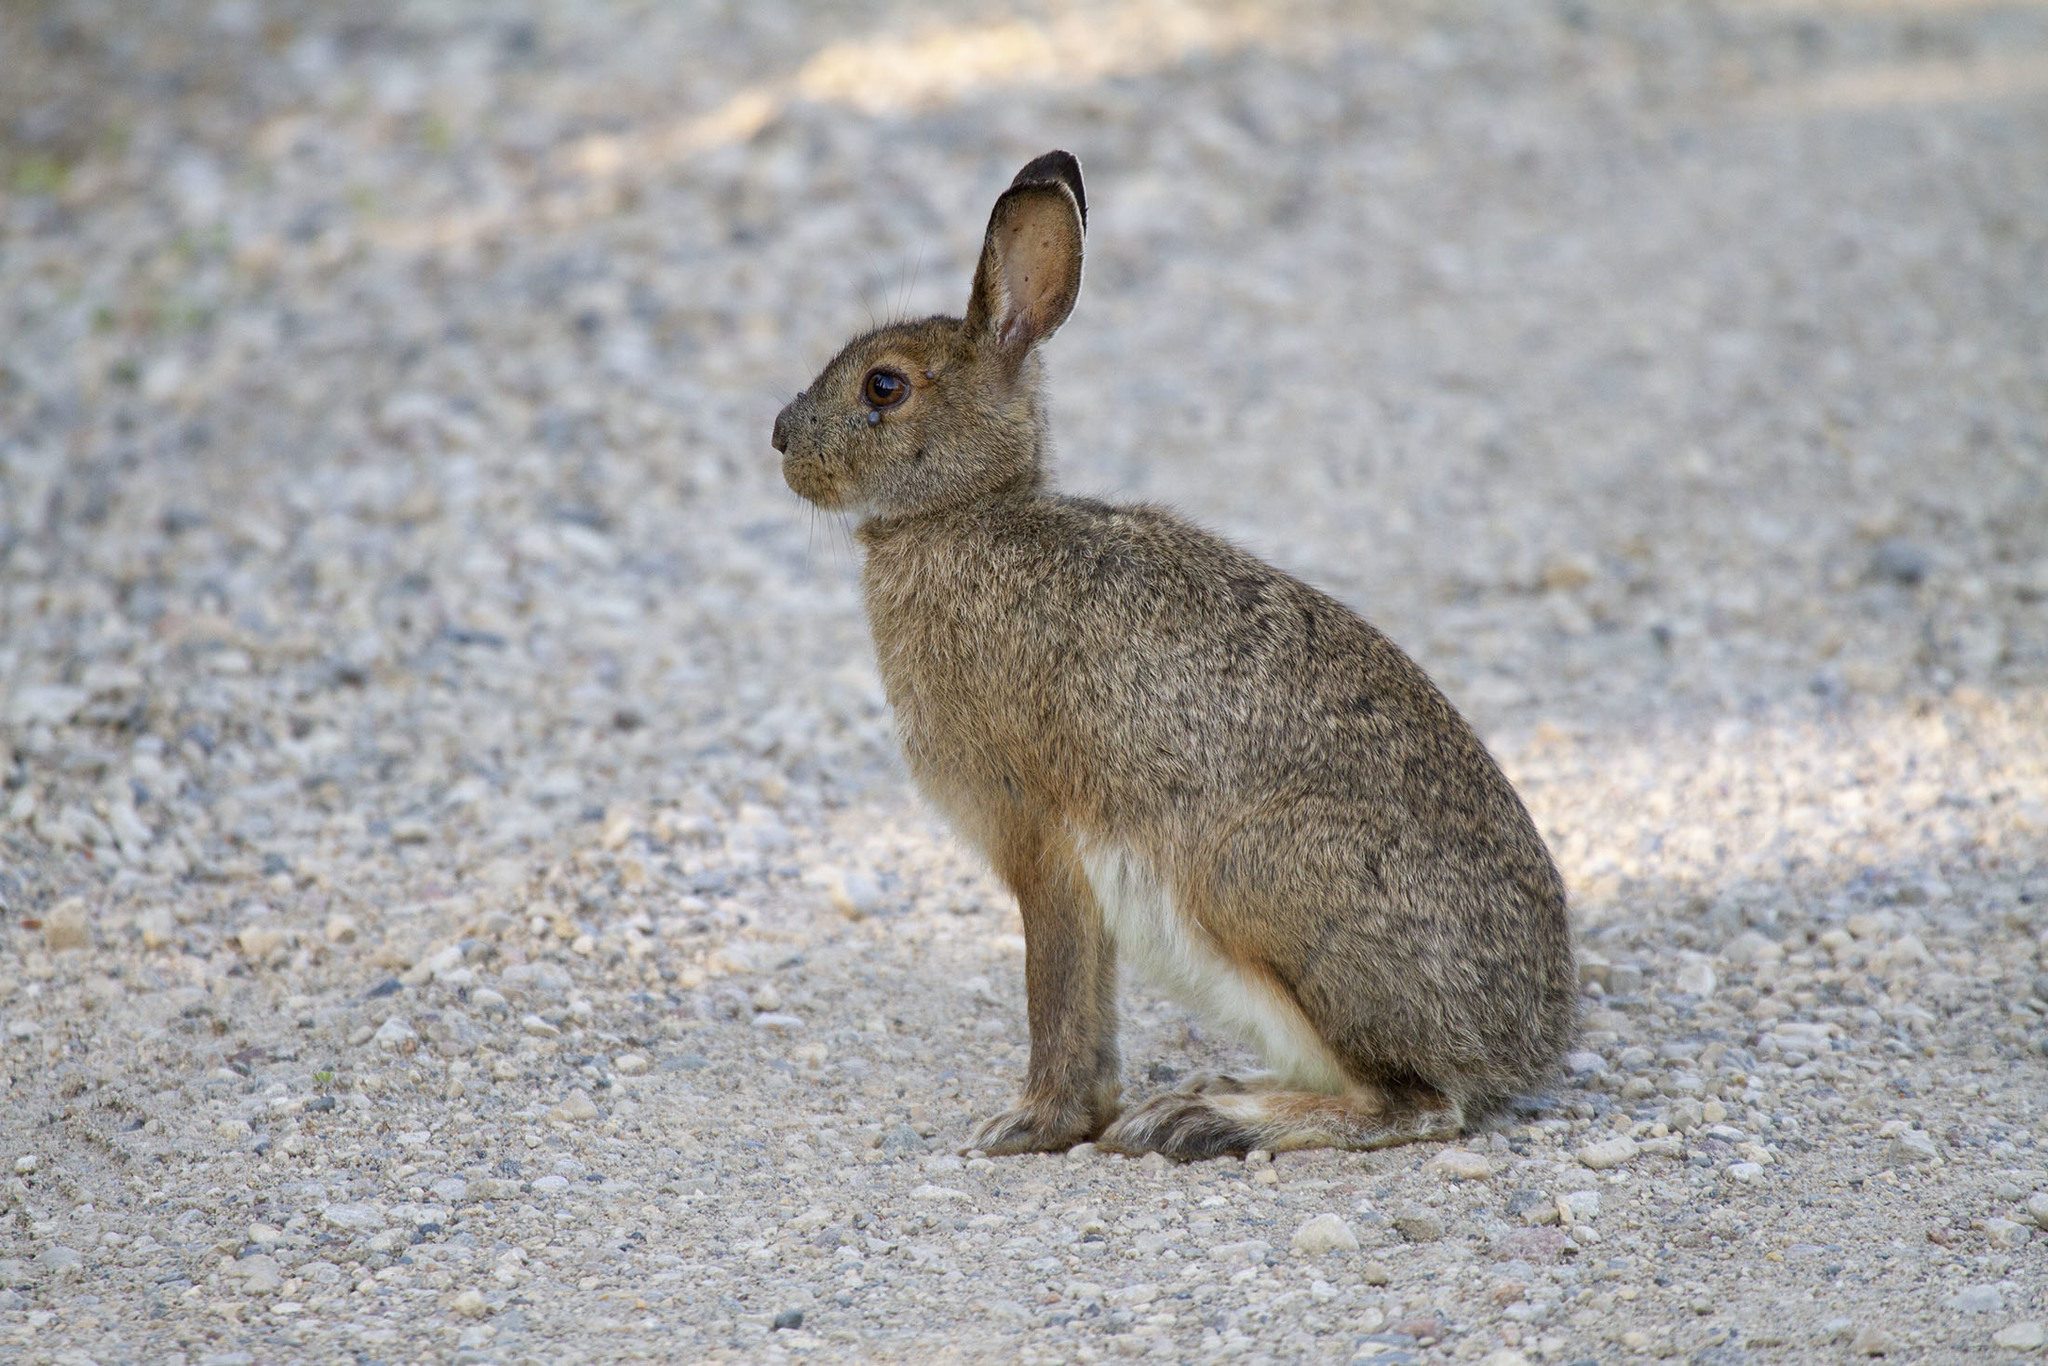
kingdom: Animalia
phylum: Chordata
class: Mammalia
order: Lagomorpha
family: Leporidae
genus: Lepus
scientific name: Lepus americanus
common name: Snowshoe hare
